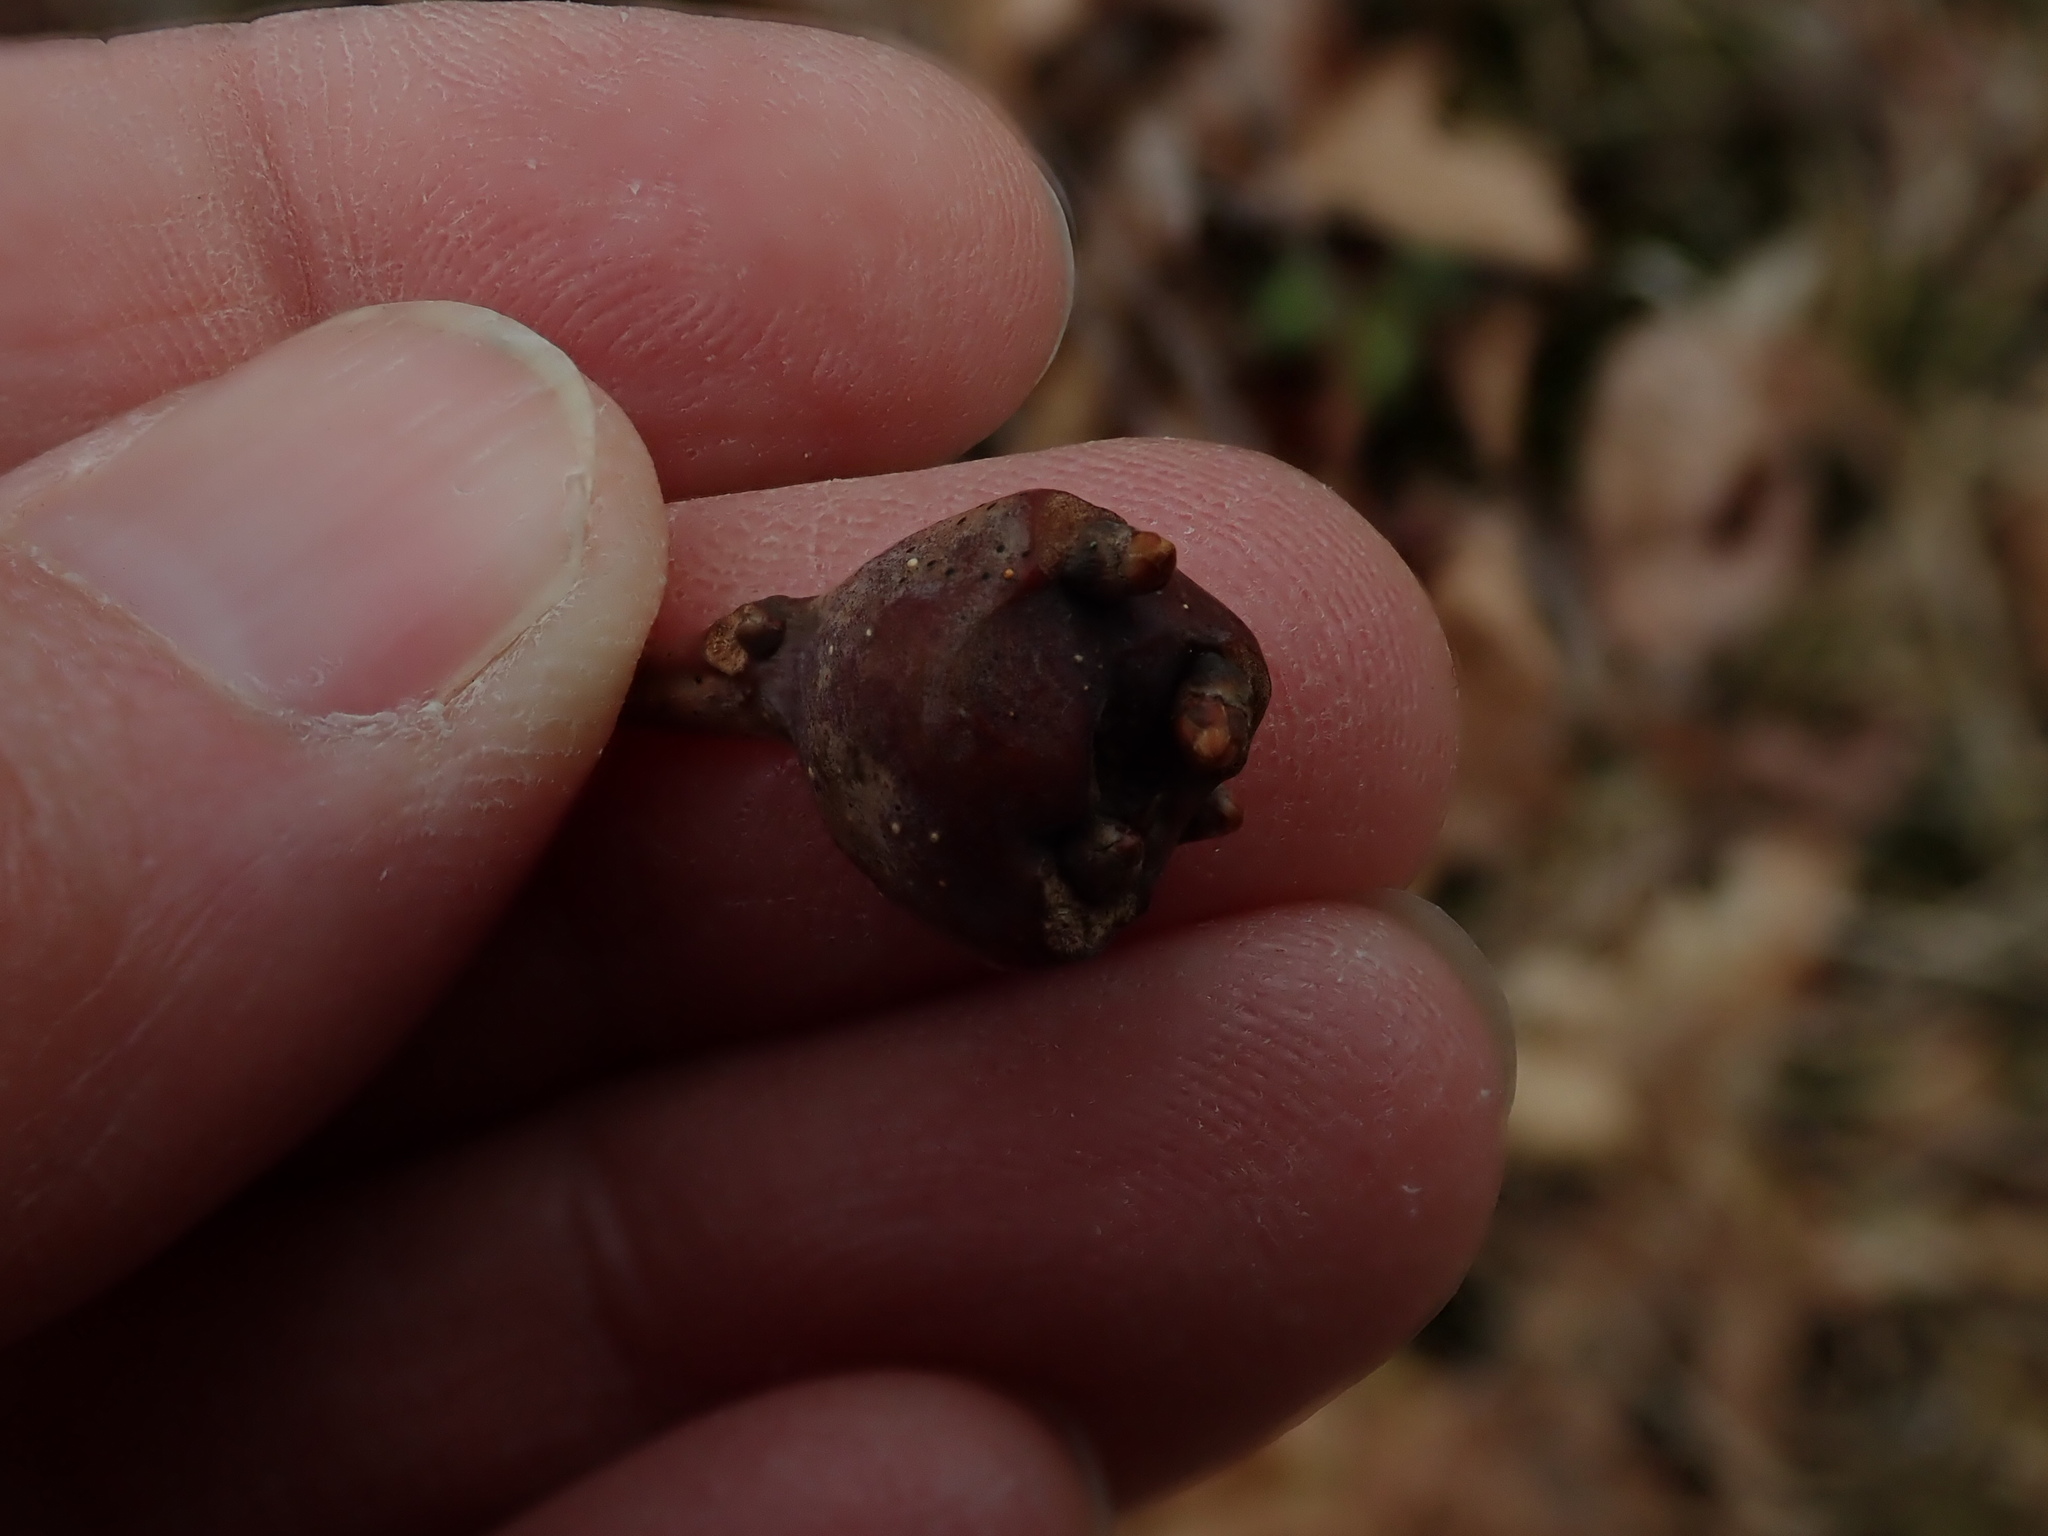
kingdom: Animalia
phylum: Arthropoda
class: Insecta
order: Hymenoptera
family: Cynipidae
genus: Callirhytis
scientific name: Callirhytis clavula
